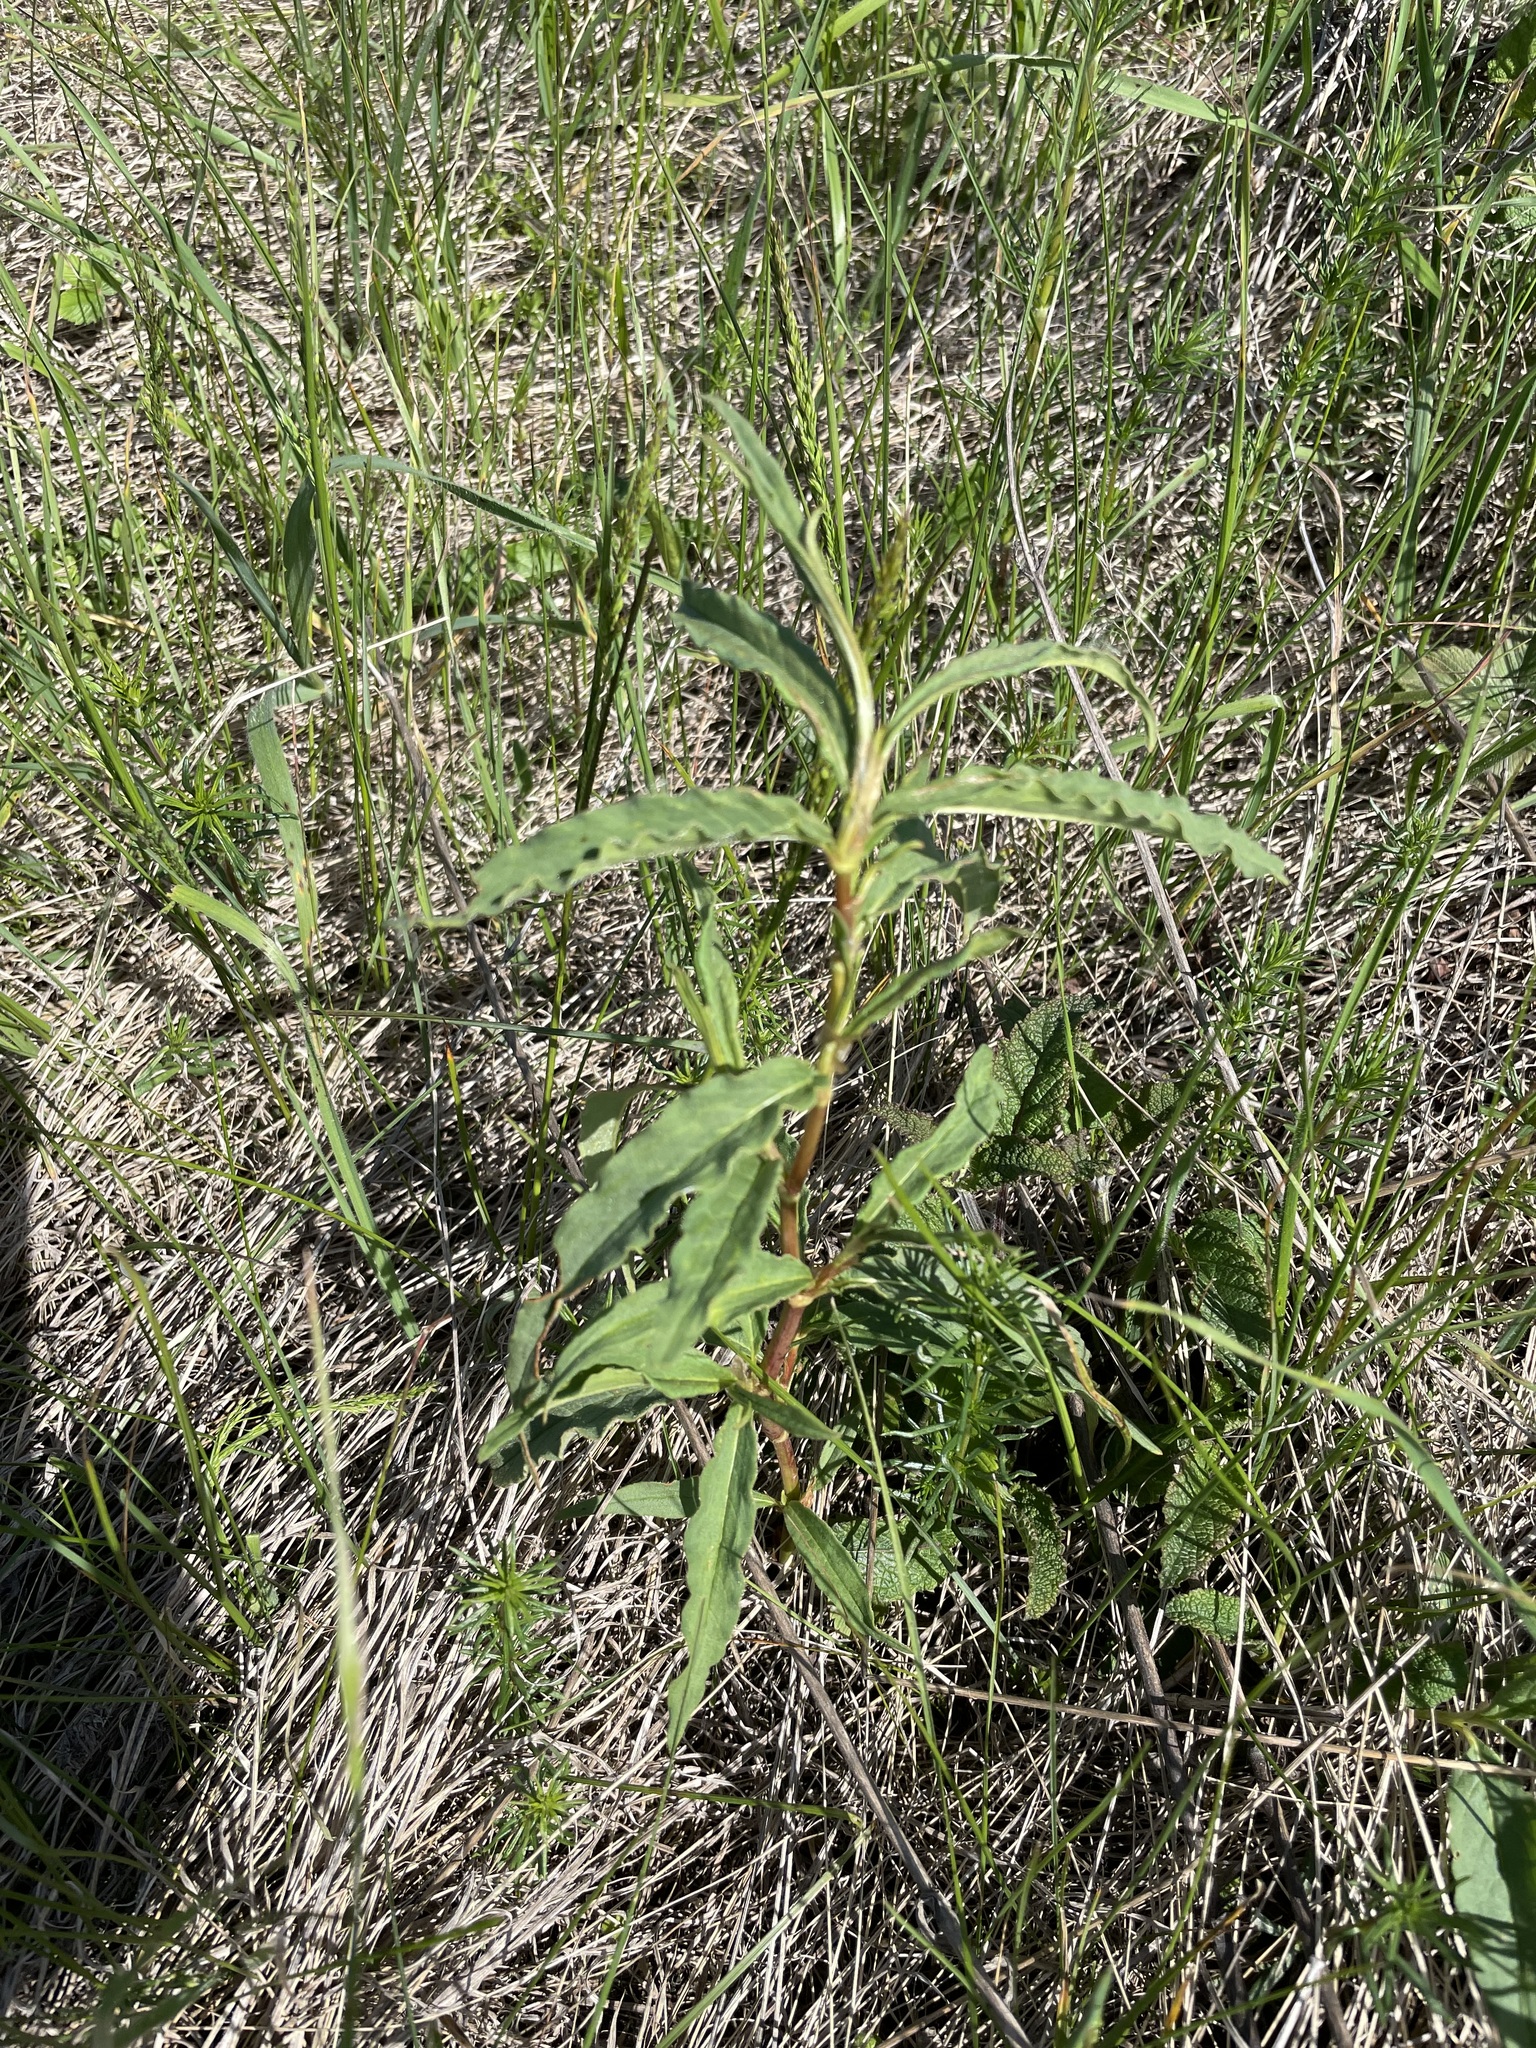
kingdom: Plantae
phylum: Tracheophyta
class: Magnoliopsida
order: Caryophyllales
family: Polygonaceae
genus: Koenigia
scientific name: Koenigia alpina
